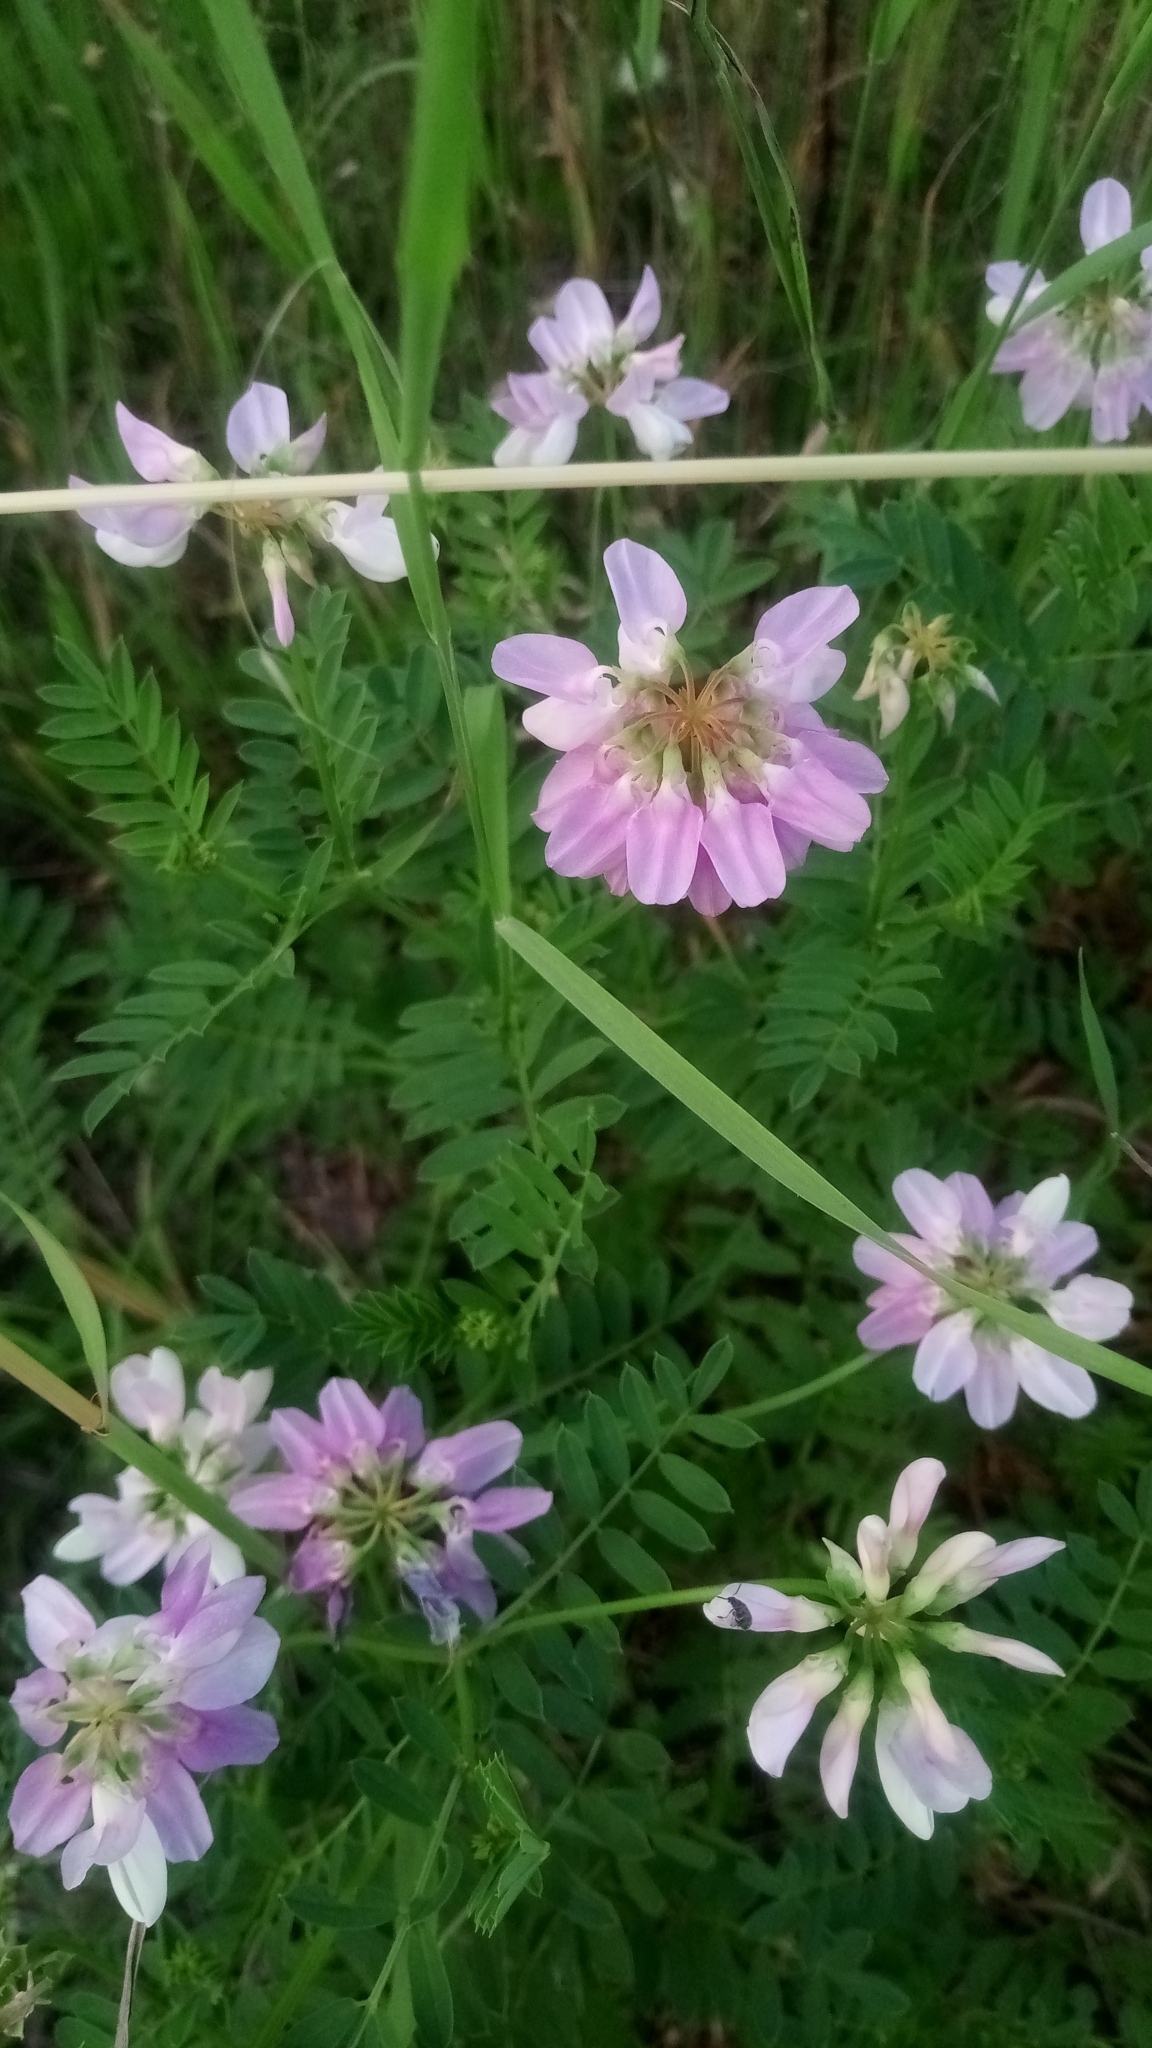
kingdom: Plantae
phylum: Tracheophyta
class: Magnoliopsida
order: Fabales
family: Fabaceae
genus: Coronilla
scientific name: Coronilla varia
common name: Crownvetch
